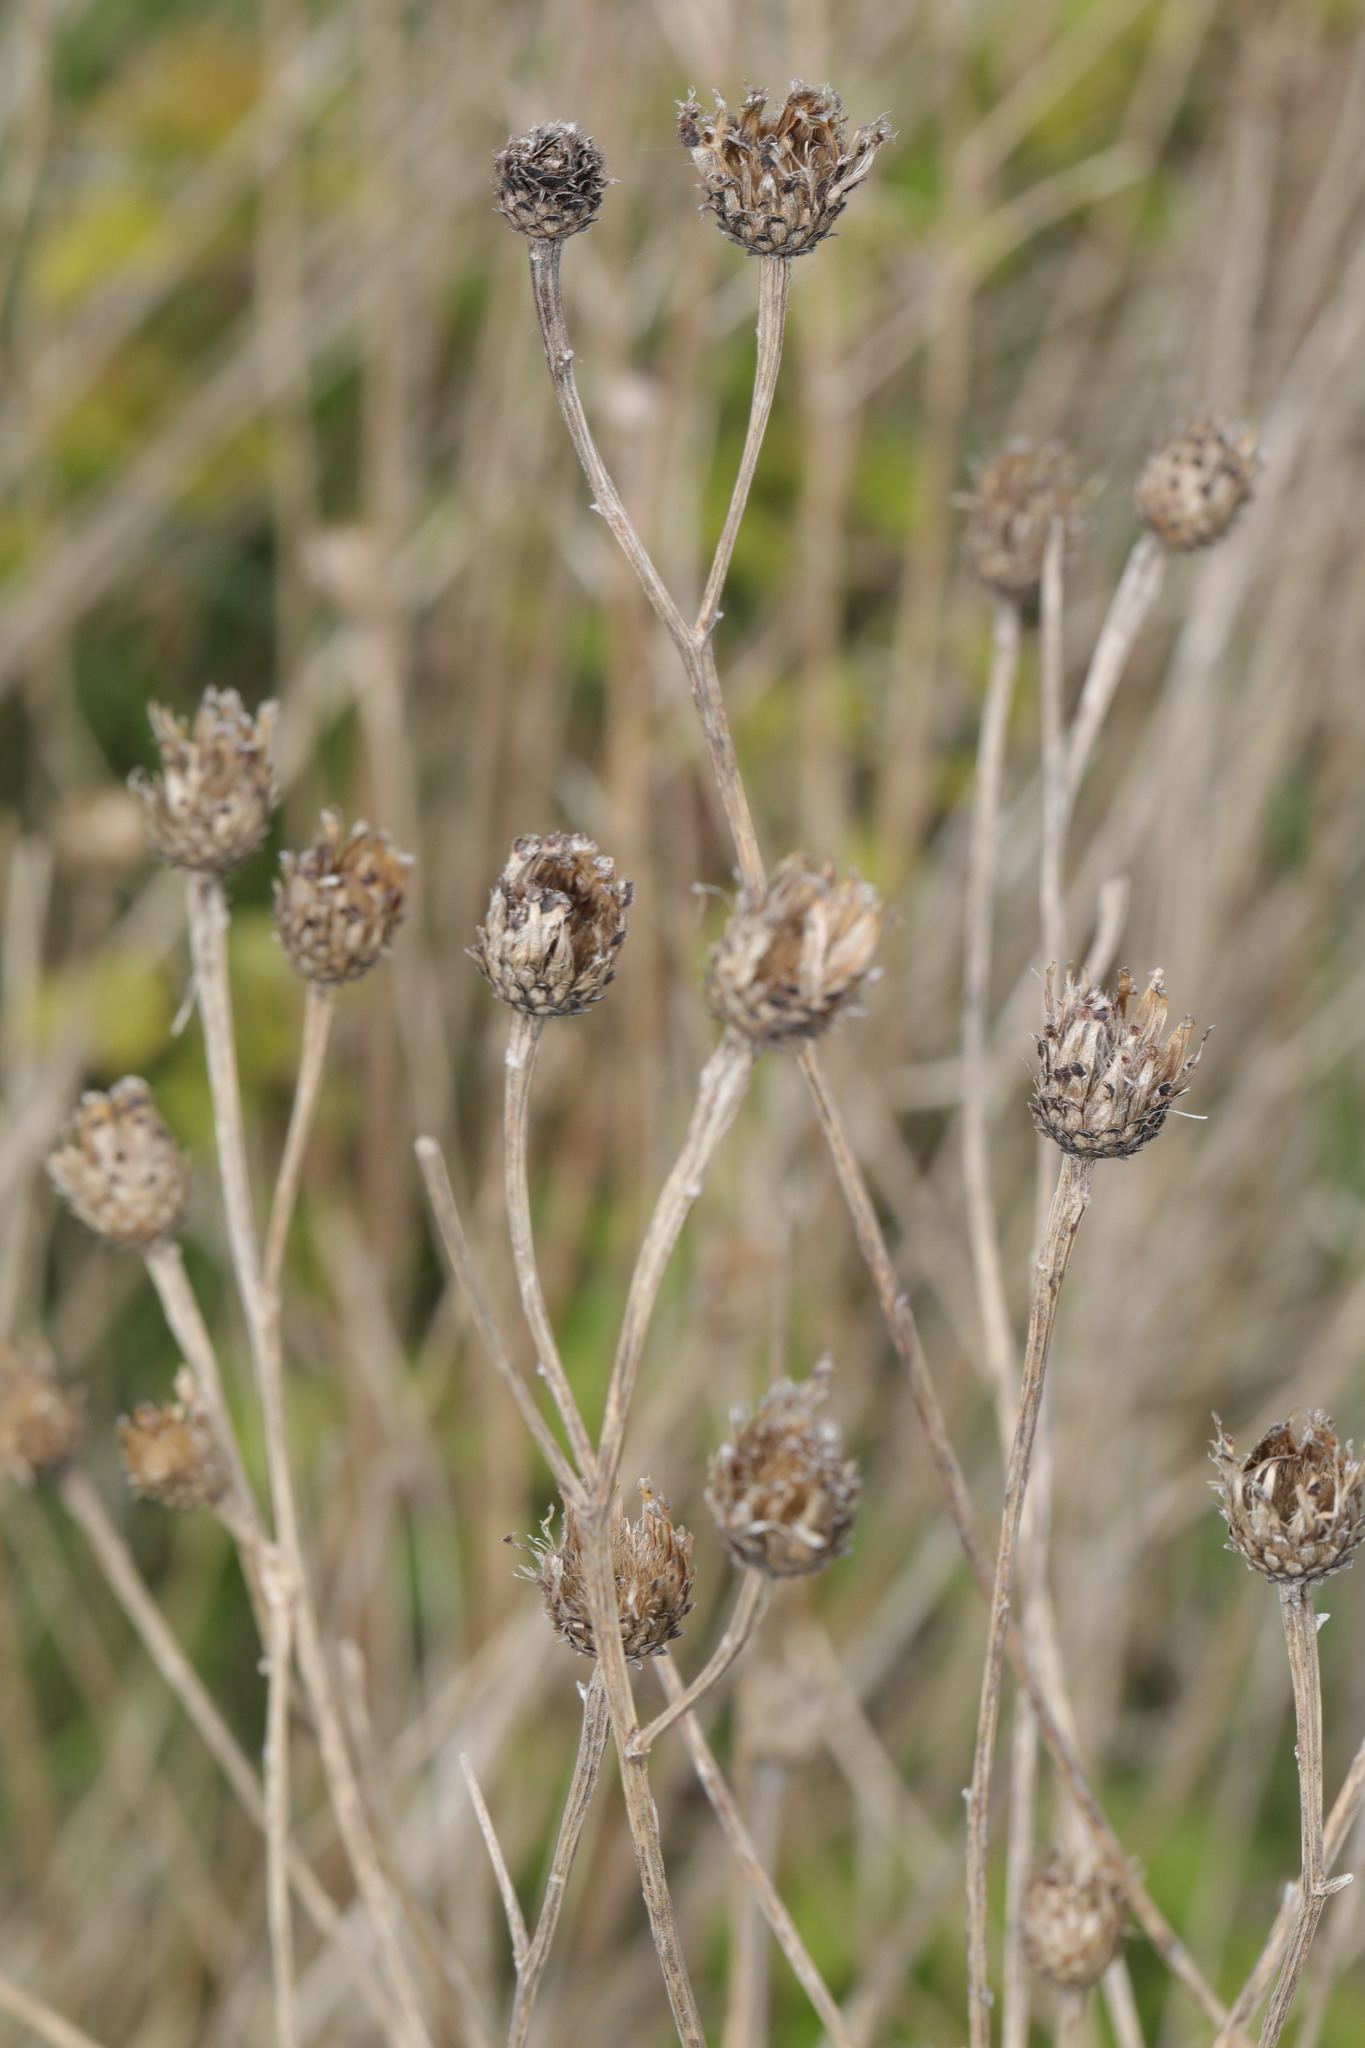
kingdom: Plantae
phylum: Tracheophyta
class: Magnoliopsida
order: Asterales
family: Asteraceae
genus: Centaurea
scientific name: Centaurea nigra
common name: Lesser knapweed
